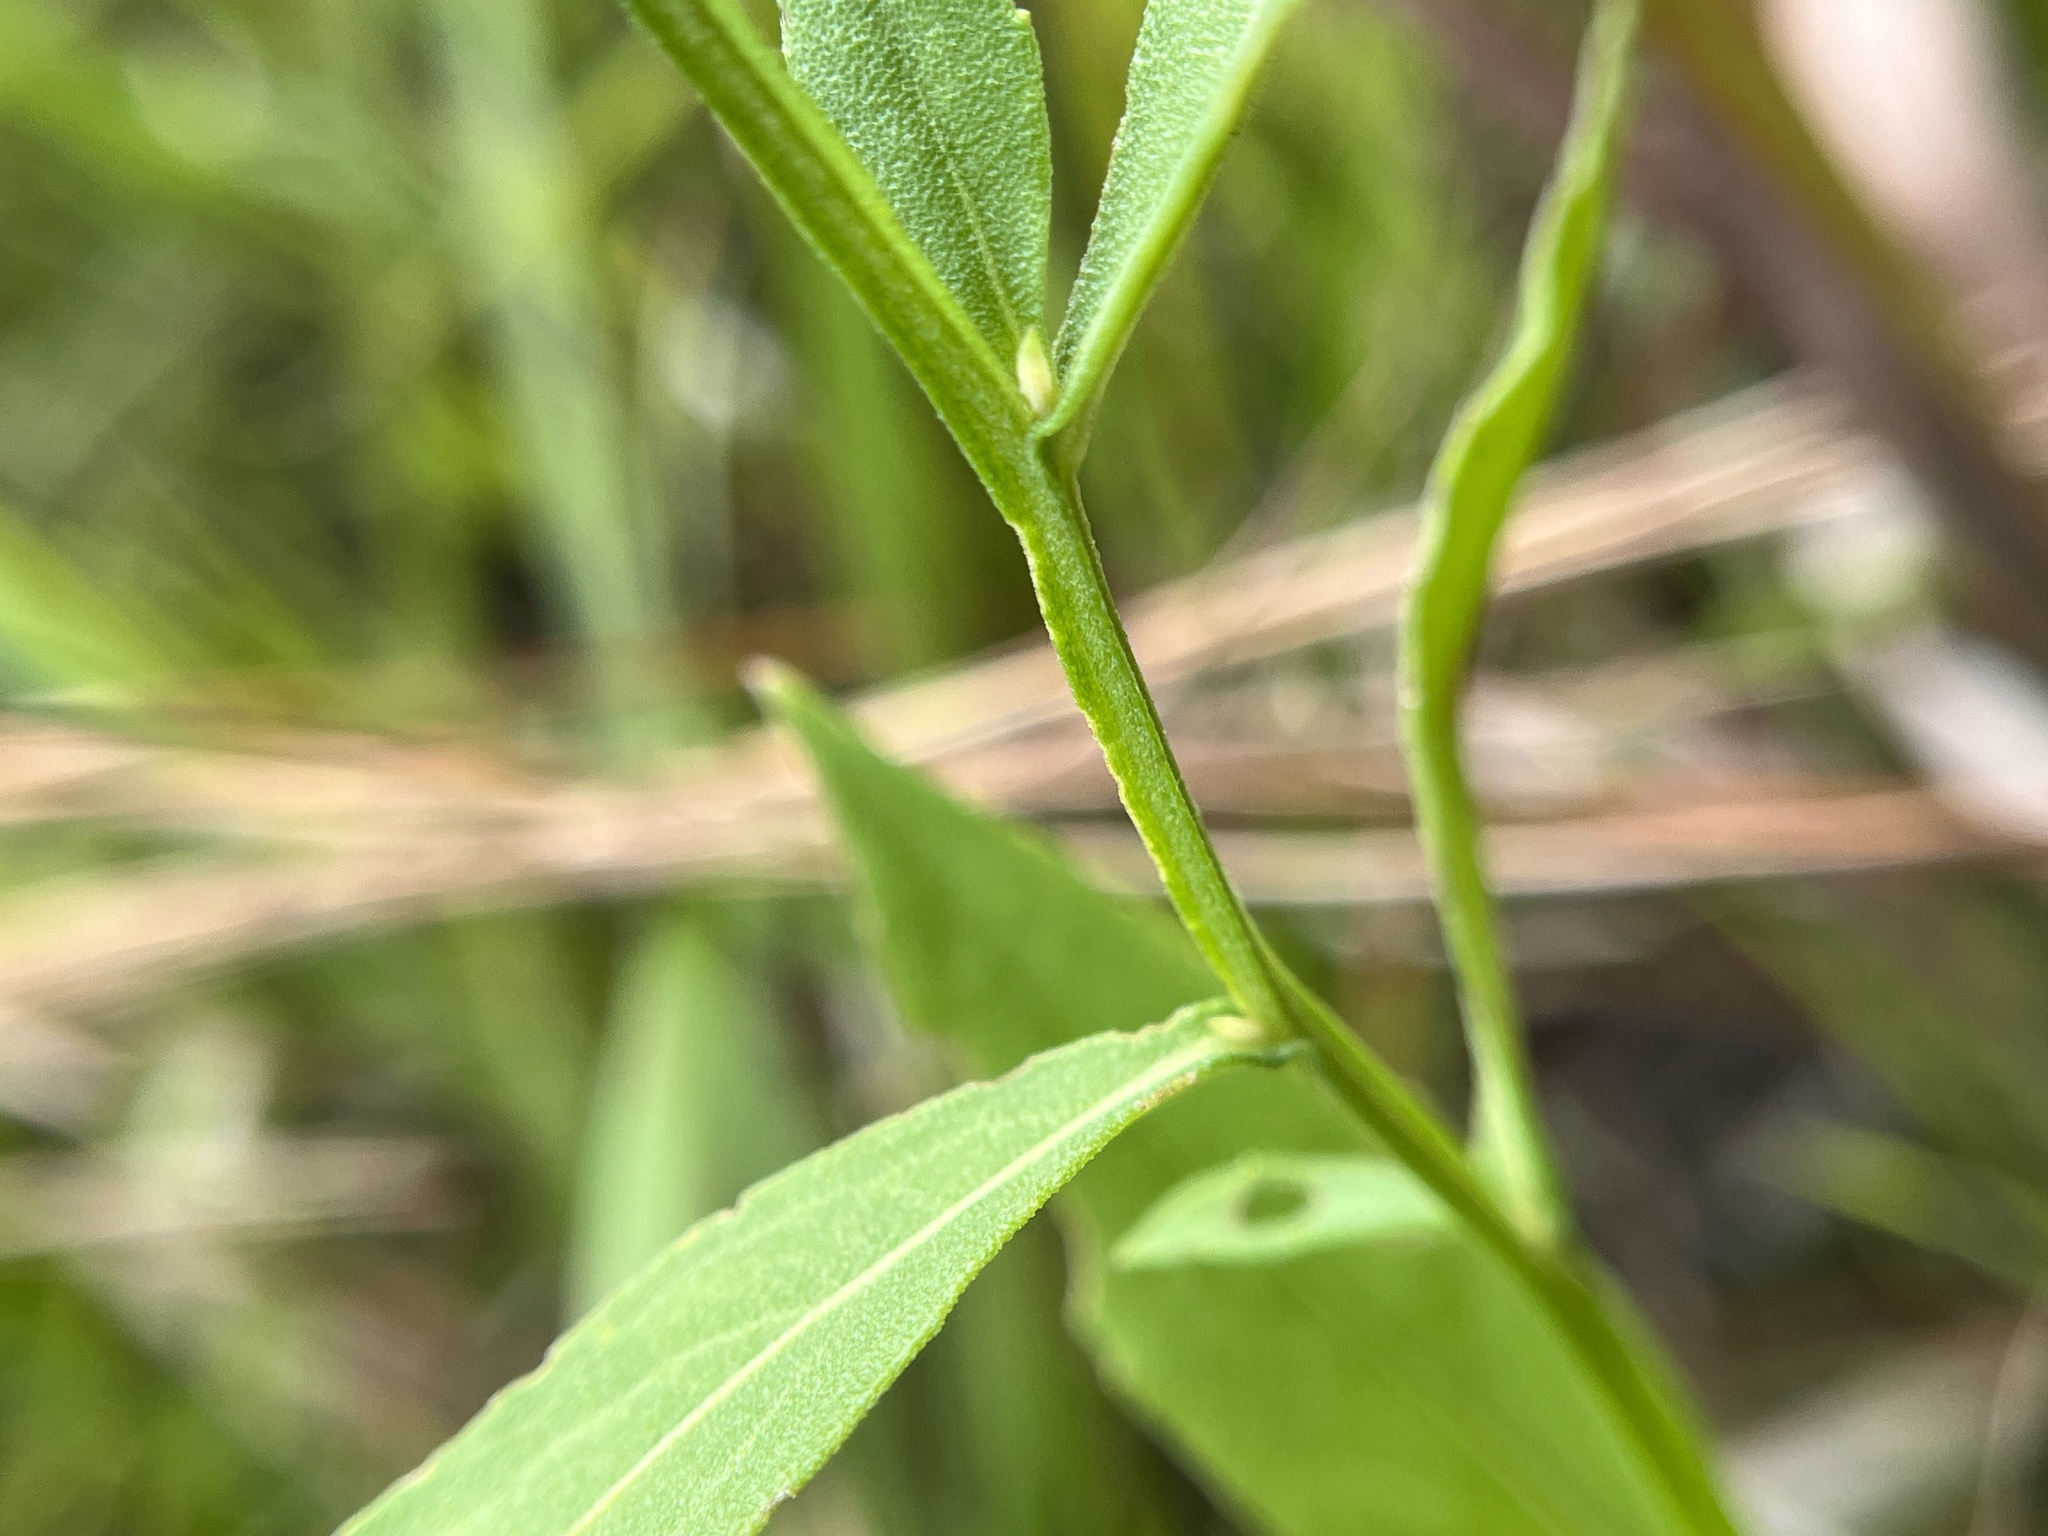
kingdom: Plantae
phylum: Tracheophyta
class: Magnoliopsida
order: Asterales
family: Asteraceae
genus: Helenium
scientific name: Helenium autumnale
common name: Sneezeweed
